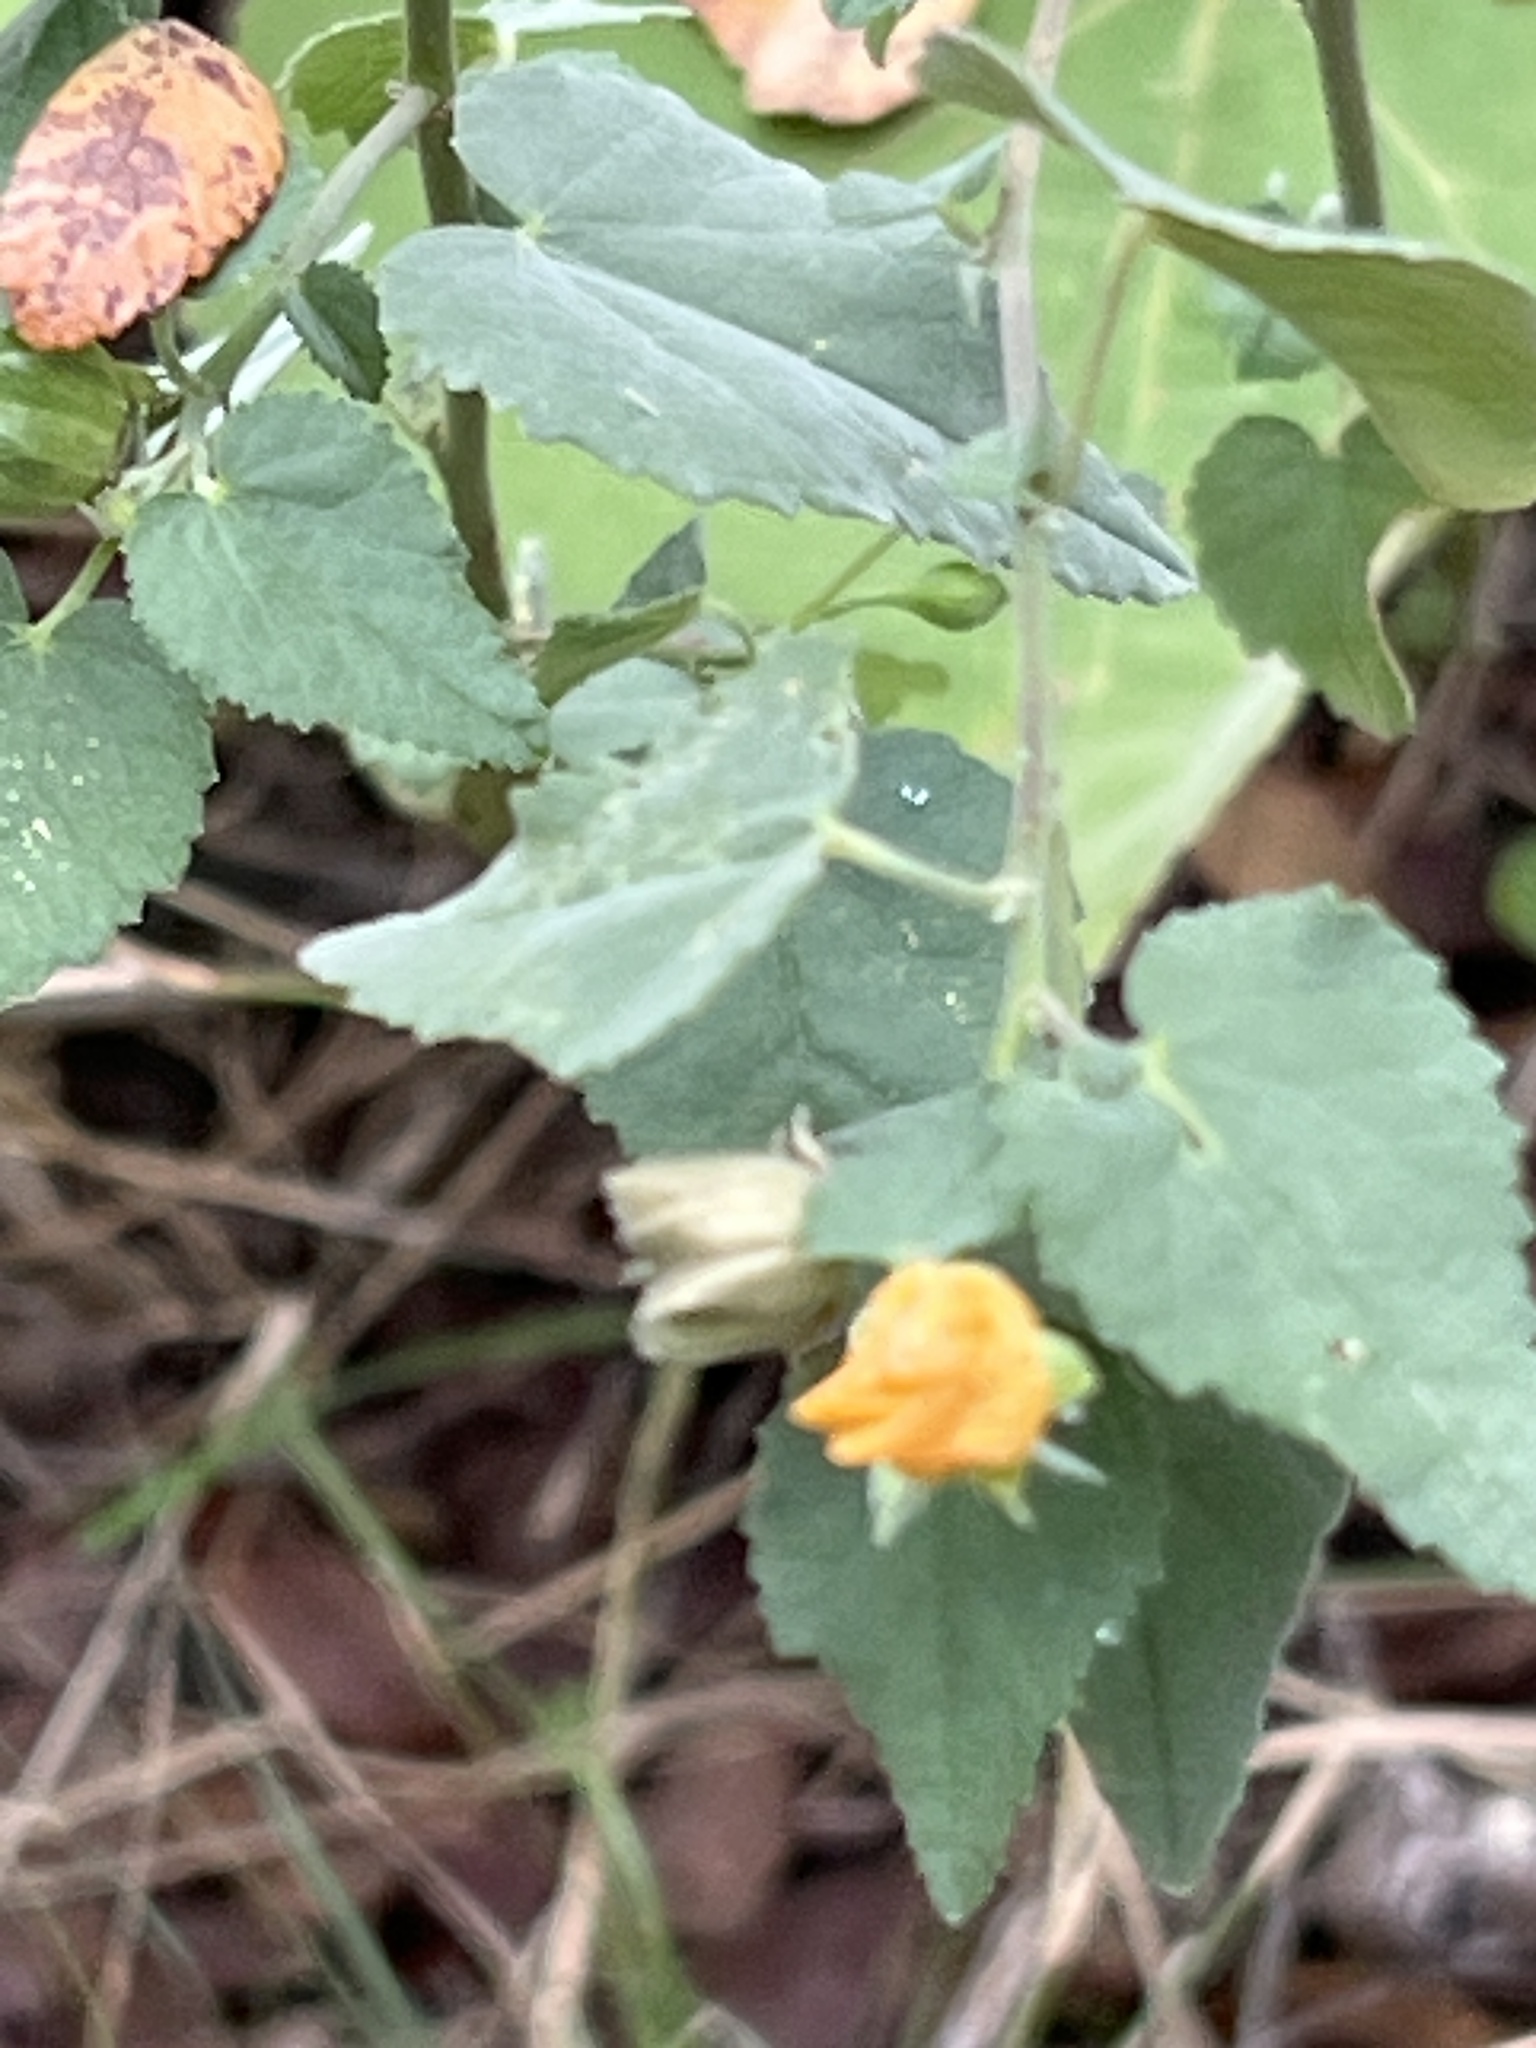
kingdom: Plantae
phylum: Tracheophyta
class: Magnoliopsida
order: Malvales
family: Malvaceae
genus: Abutilon
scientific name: Abutilon fruticosum
